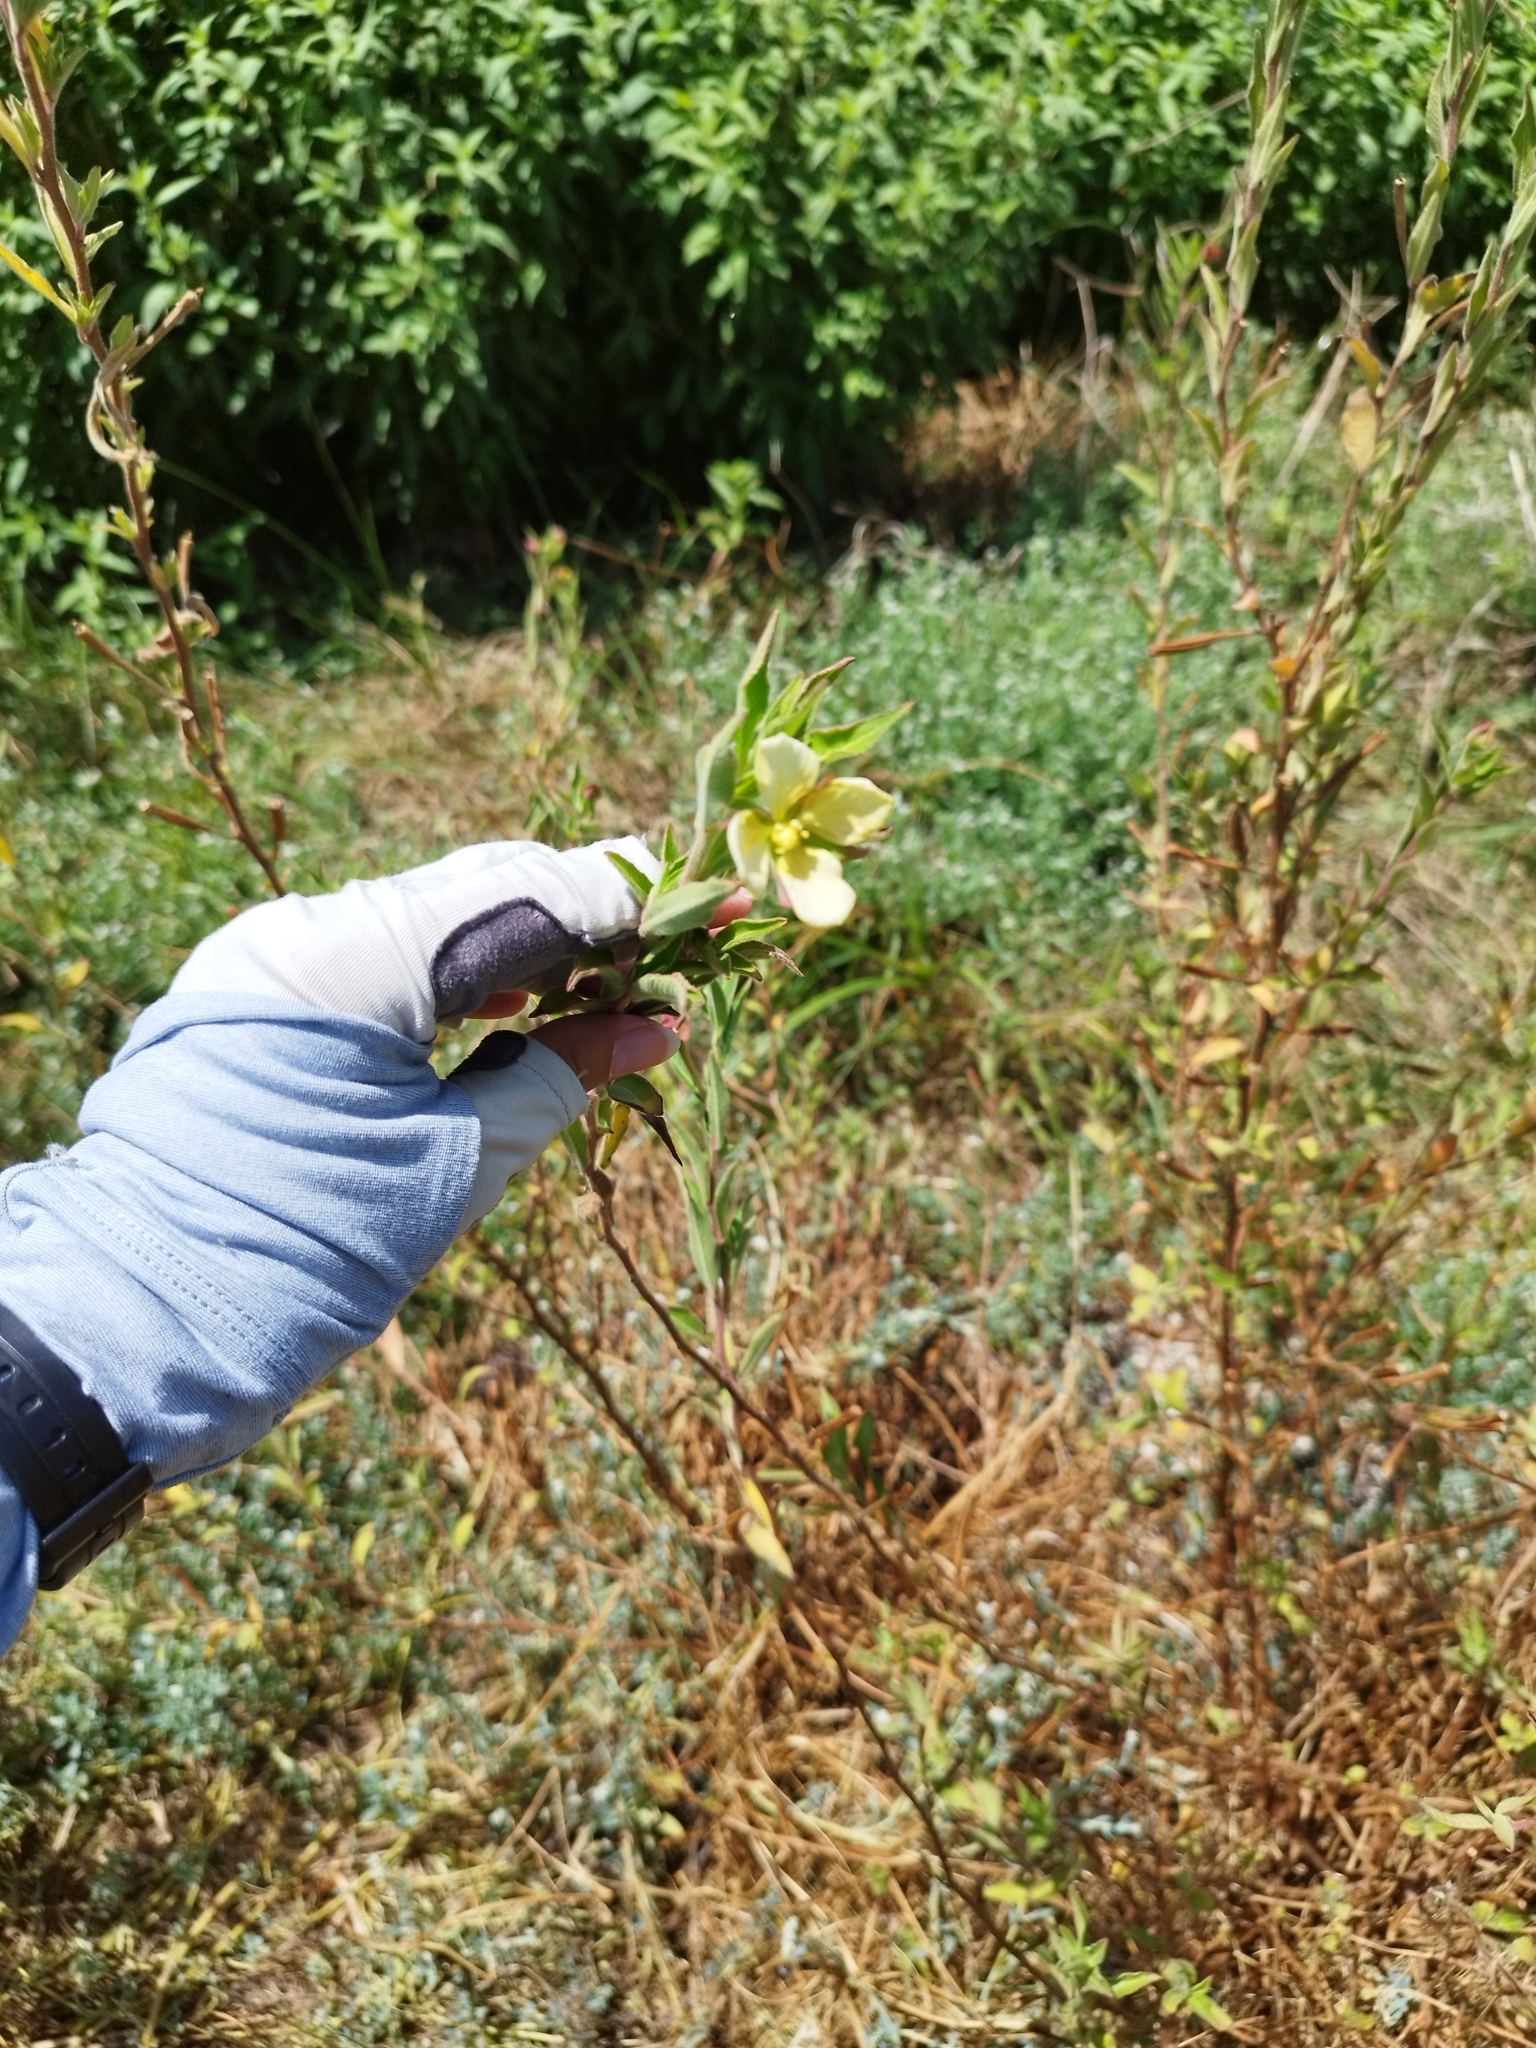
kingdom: Plantae
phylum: Tracheophyta
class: Magnoliopsida
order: Myrtales
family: Onagraceae
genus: Ludwigia
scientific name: Ludwigia octovalvis
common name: Water-primrose
